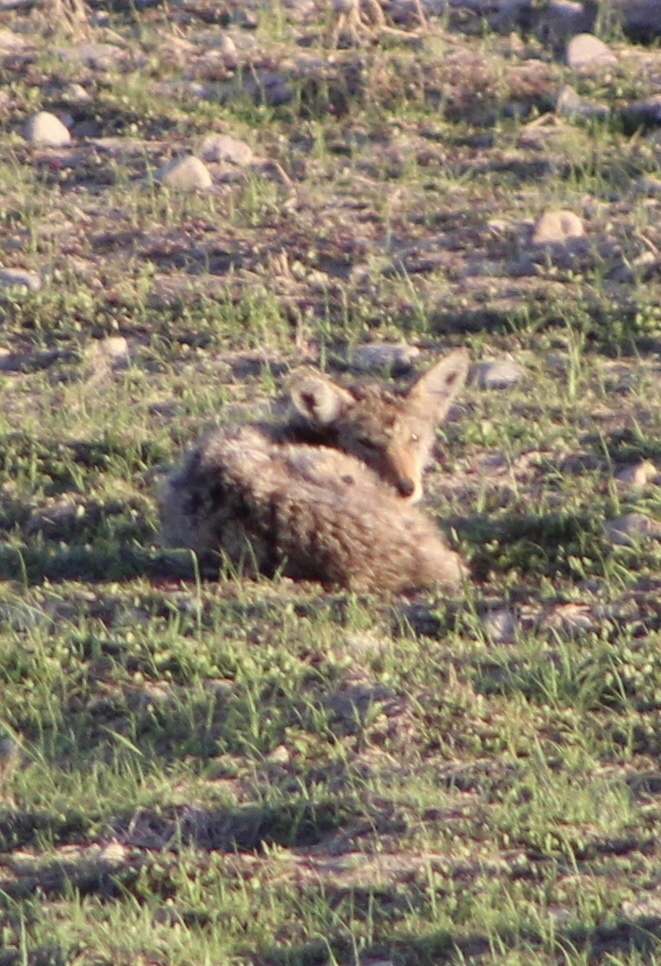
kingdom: Animalia
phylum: Chordata
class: Mammalia
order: Carnivora
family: Canidae
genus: Canis
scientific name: Canis latrans
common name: Coyote
